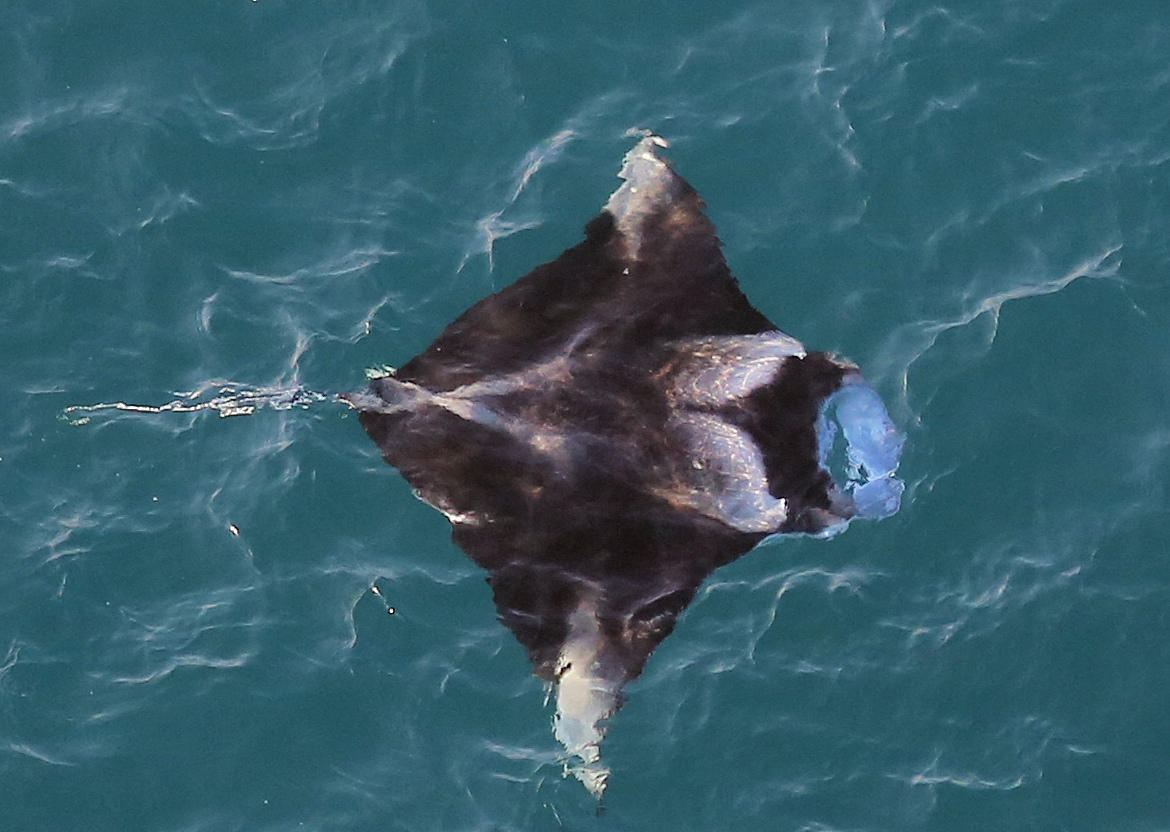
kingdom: Animalia
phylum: Chordata
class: Elasmobranchii
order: Myliobatiformes
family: Myliobatidae
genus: Mobula
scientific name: Mobula alfredi
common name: Reef manta ray
